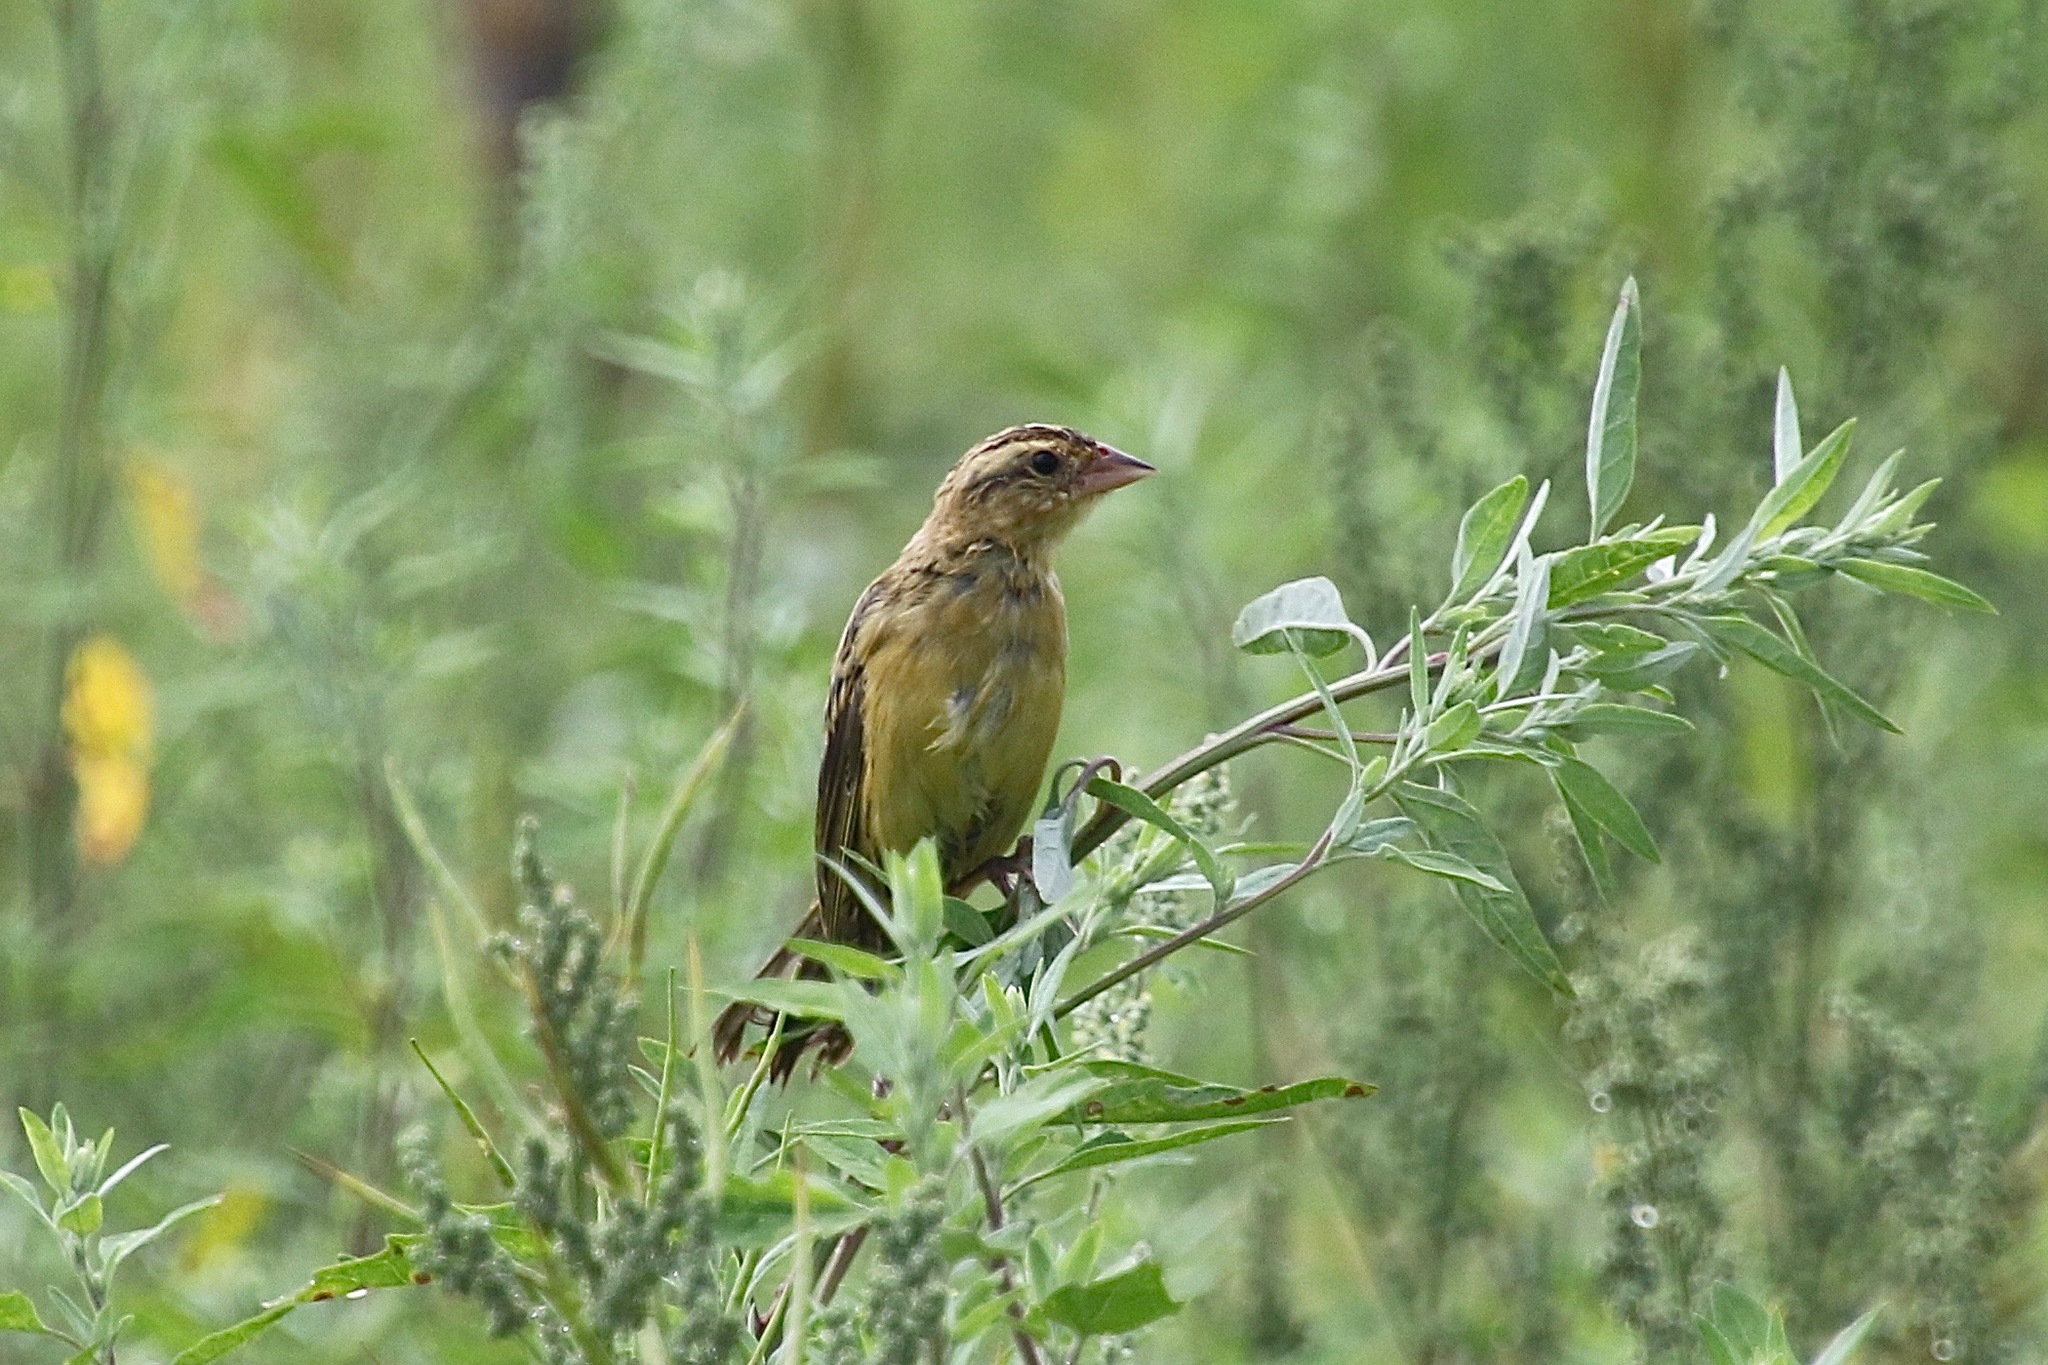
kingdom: Animalia
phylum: Chordata
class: Aves
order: Passeriformes
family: Icteridae
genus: Dolichonyx
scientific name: Dolichonyx oryzivorus
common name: Bobolink
